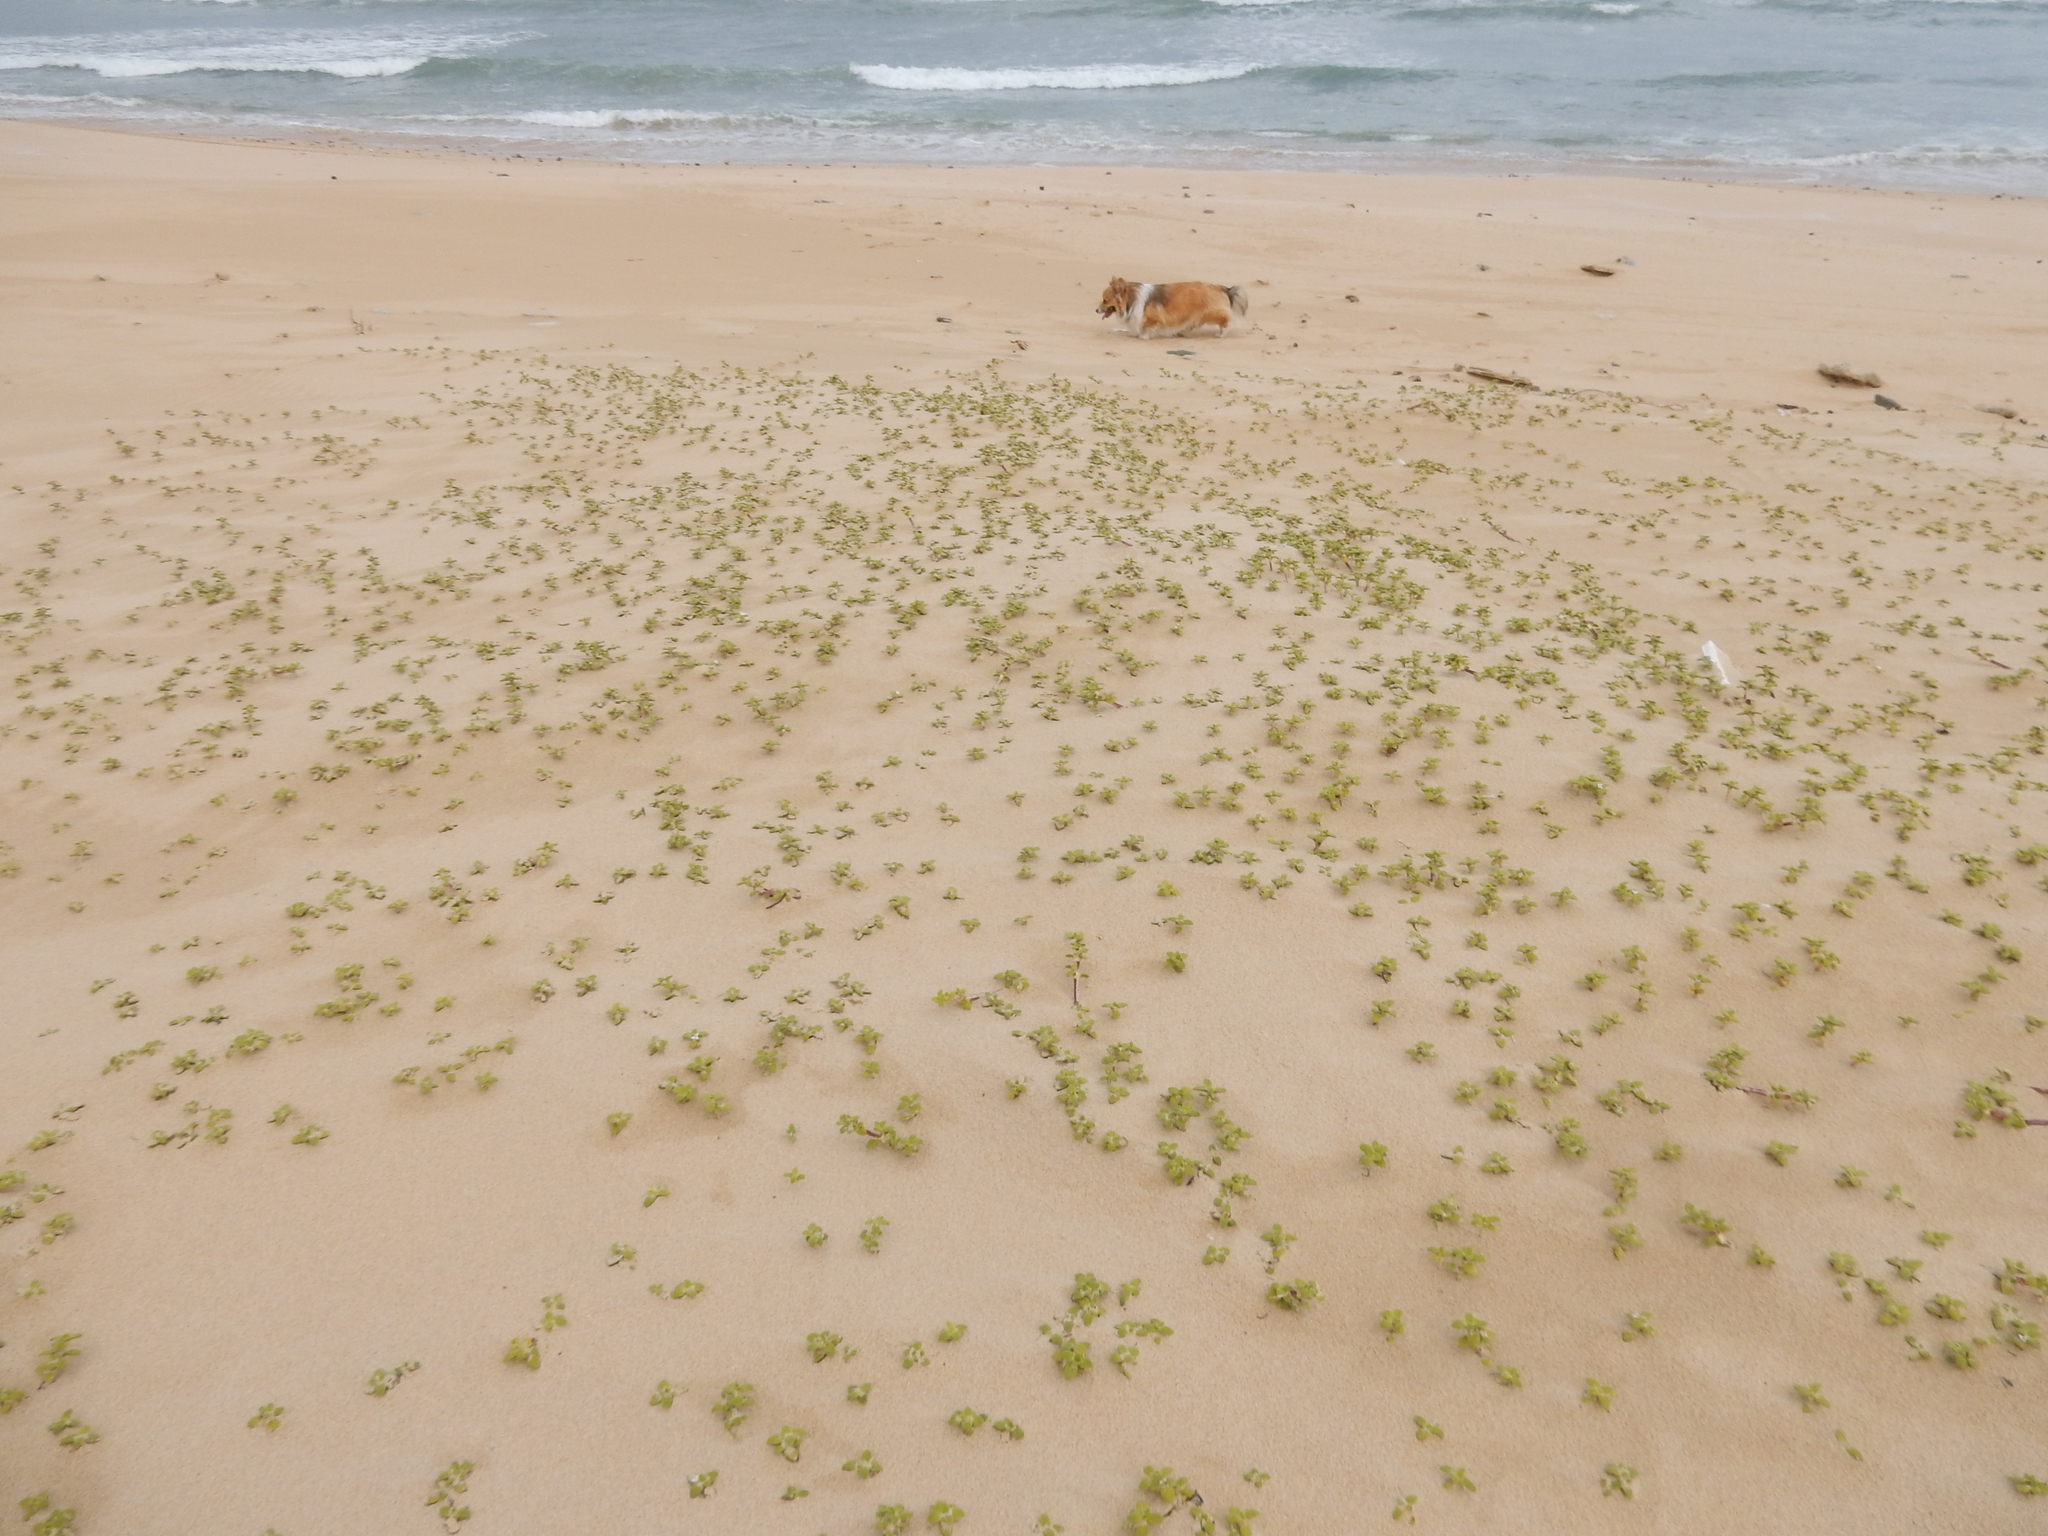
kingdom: Plantae
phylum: Tracheophyta
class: Magnoliopsida
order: Gentianales
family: Rubiaceae
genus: Phylohydrax
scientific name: Phylohydrax carnosa
